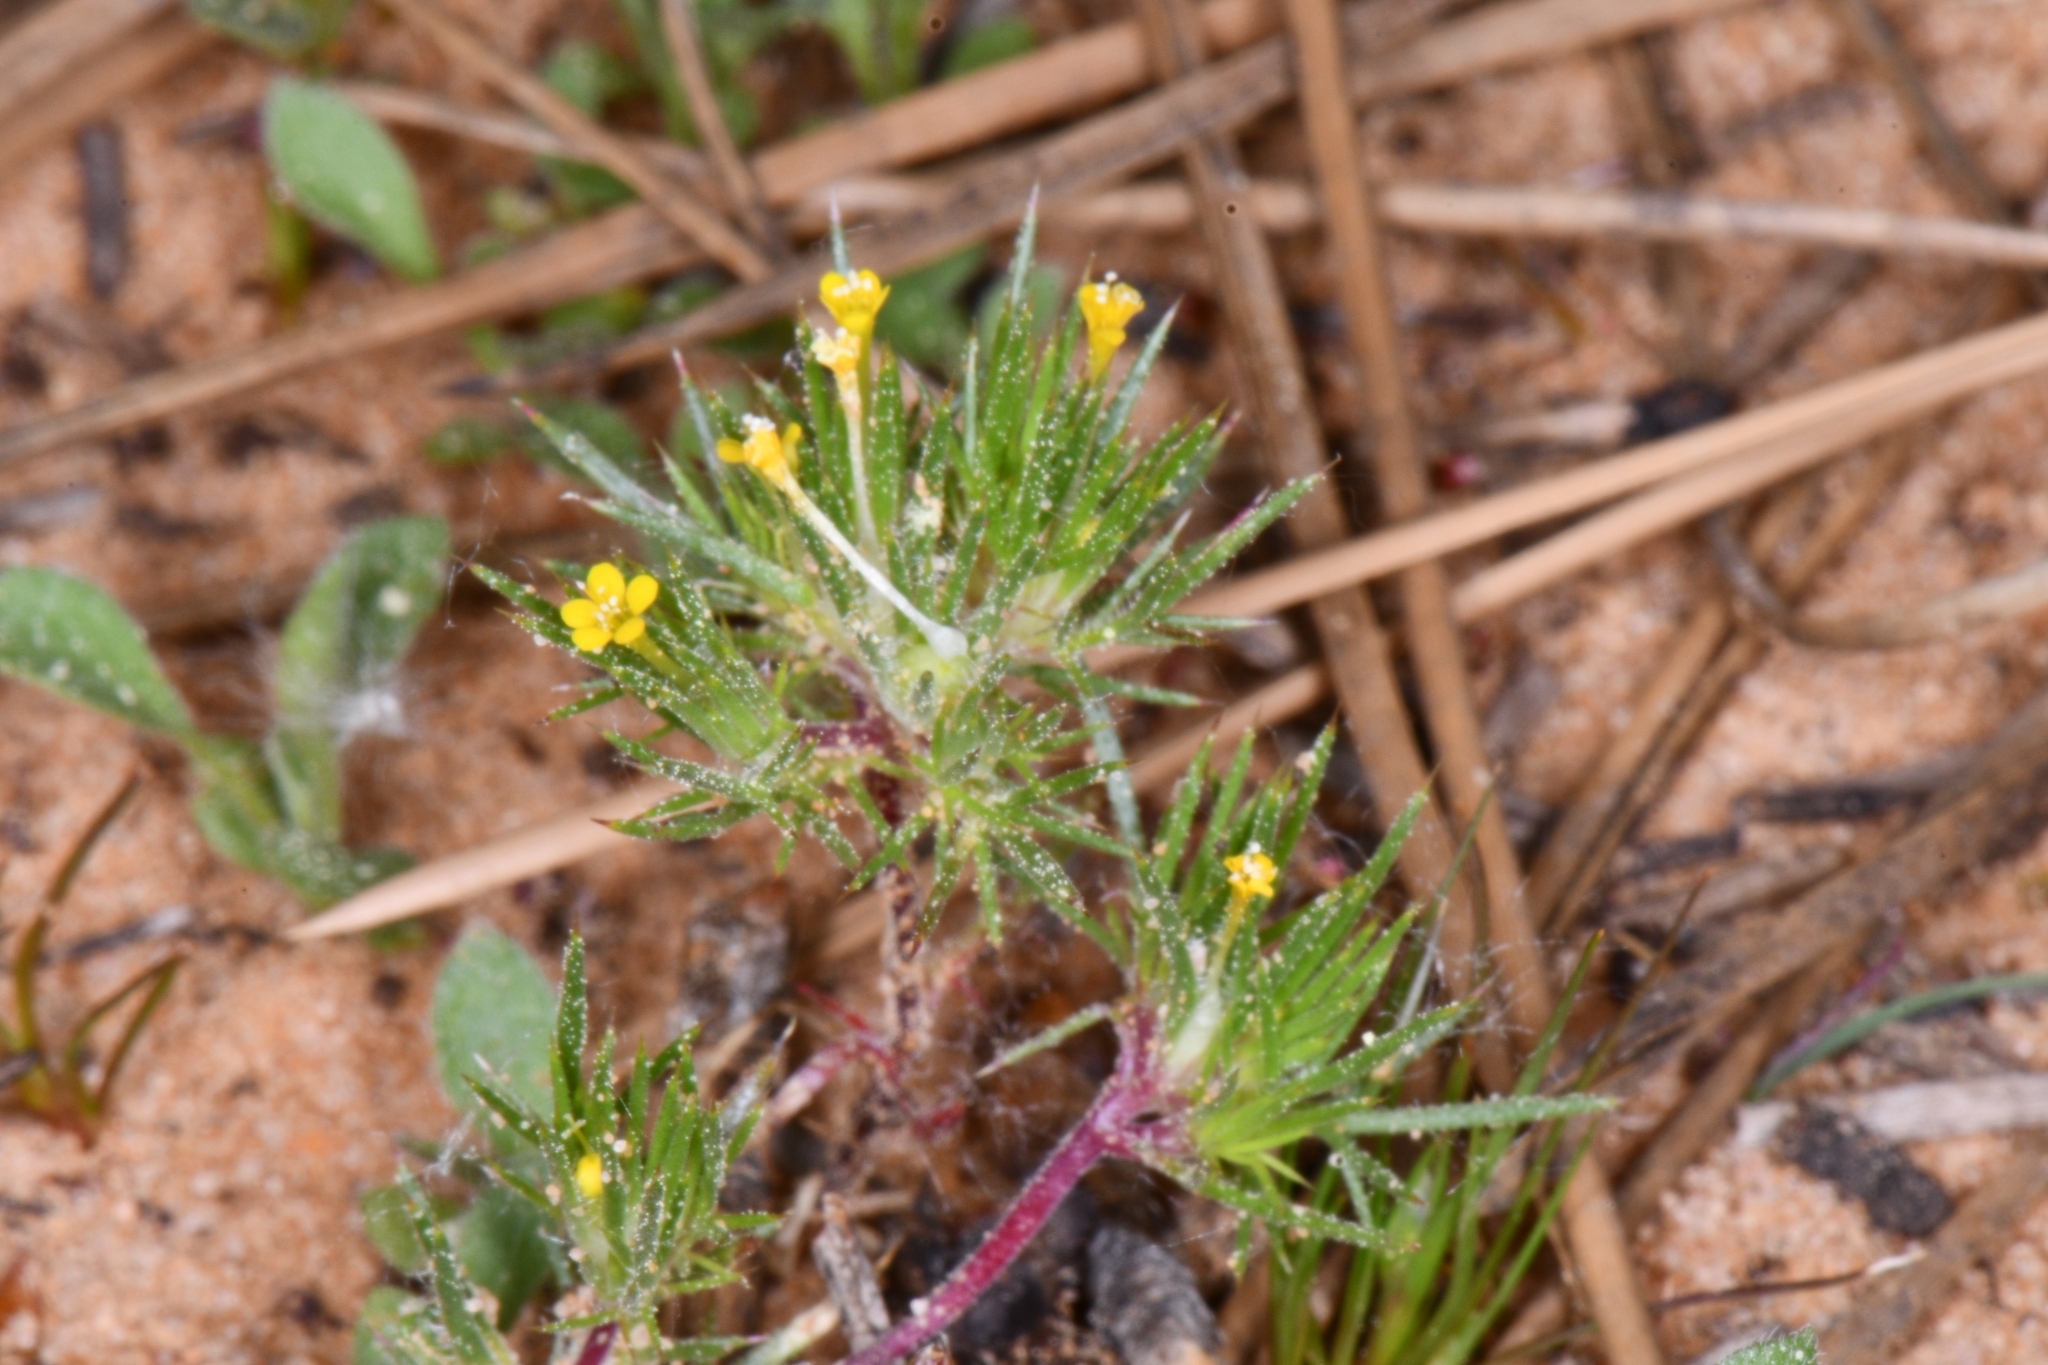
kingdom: Plantae
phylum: Tracheophyta
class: Magnoliopsida
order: Ericales
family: Polemoniaceae
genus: Navarretia
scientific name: Navarretia breweri
